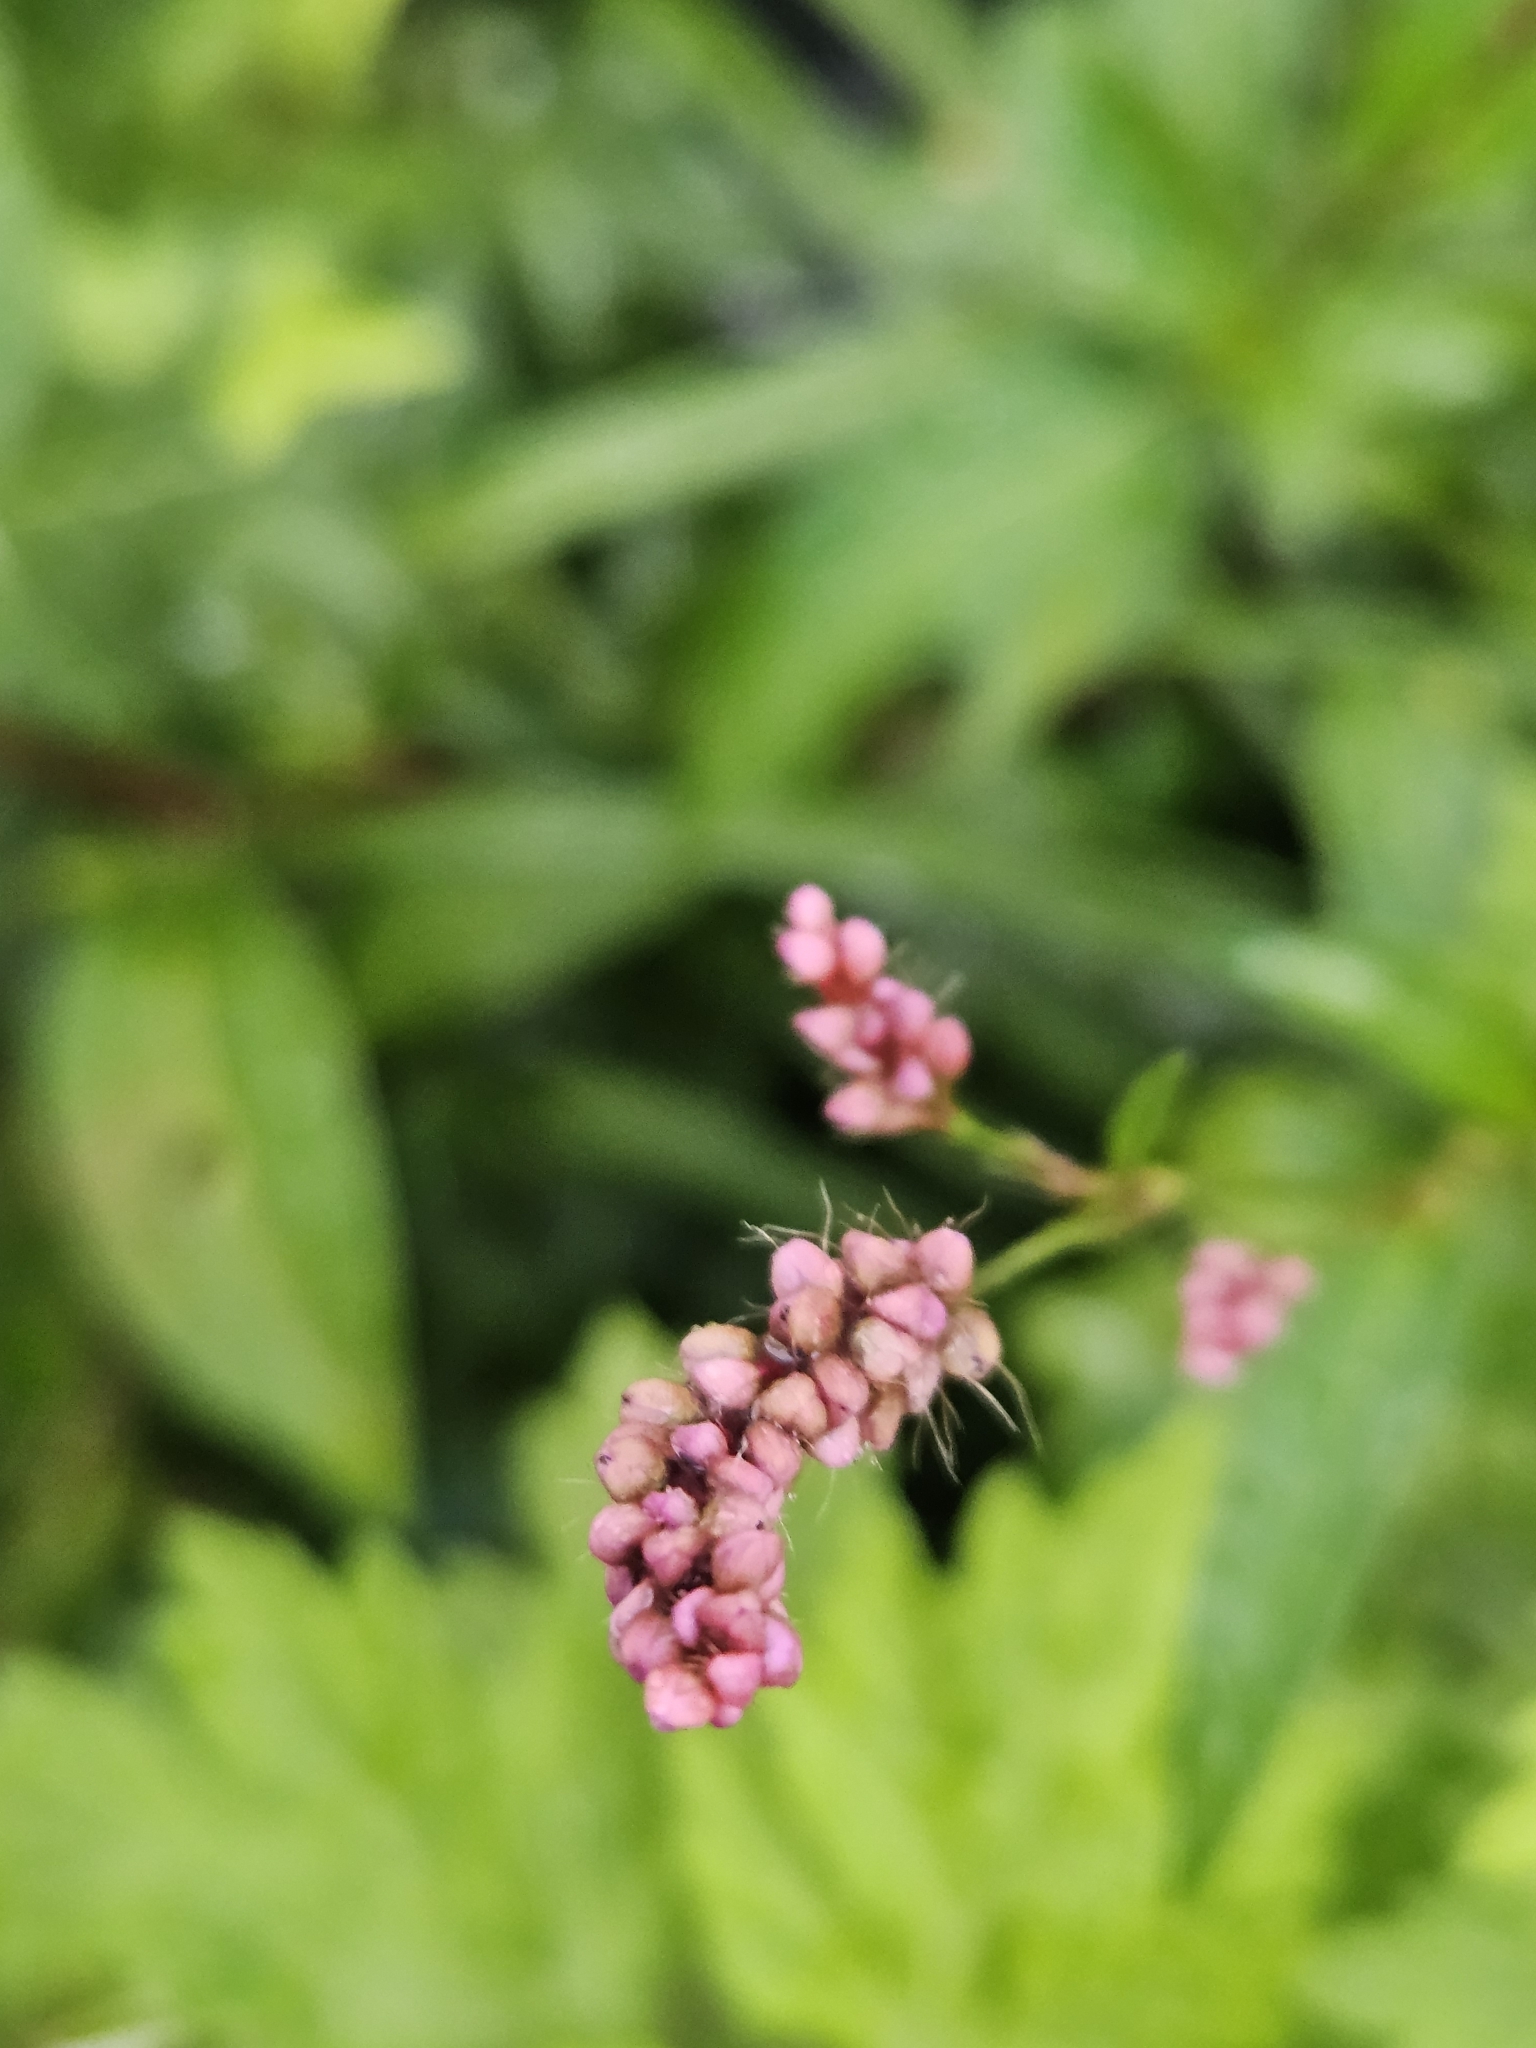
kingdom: Plantae
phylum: Tracheophyta
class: Magnoliopsida
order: Caryophyllales
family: Polygonaceae
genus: Persicaria
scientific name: Persicaria longiseta
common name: Bristly lady's-thumb
